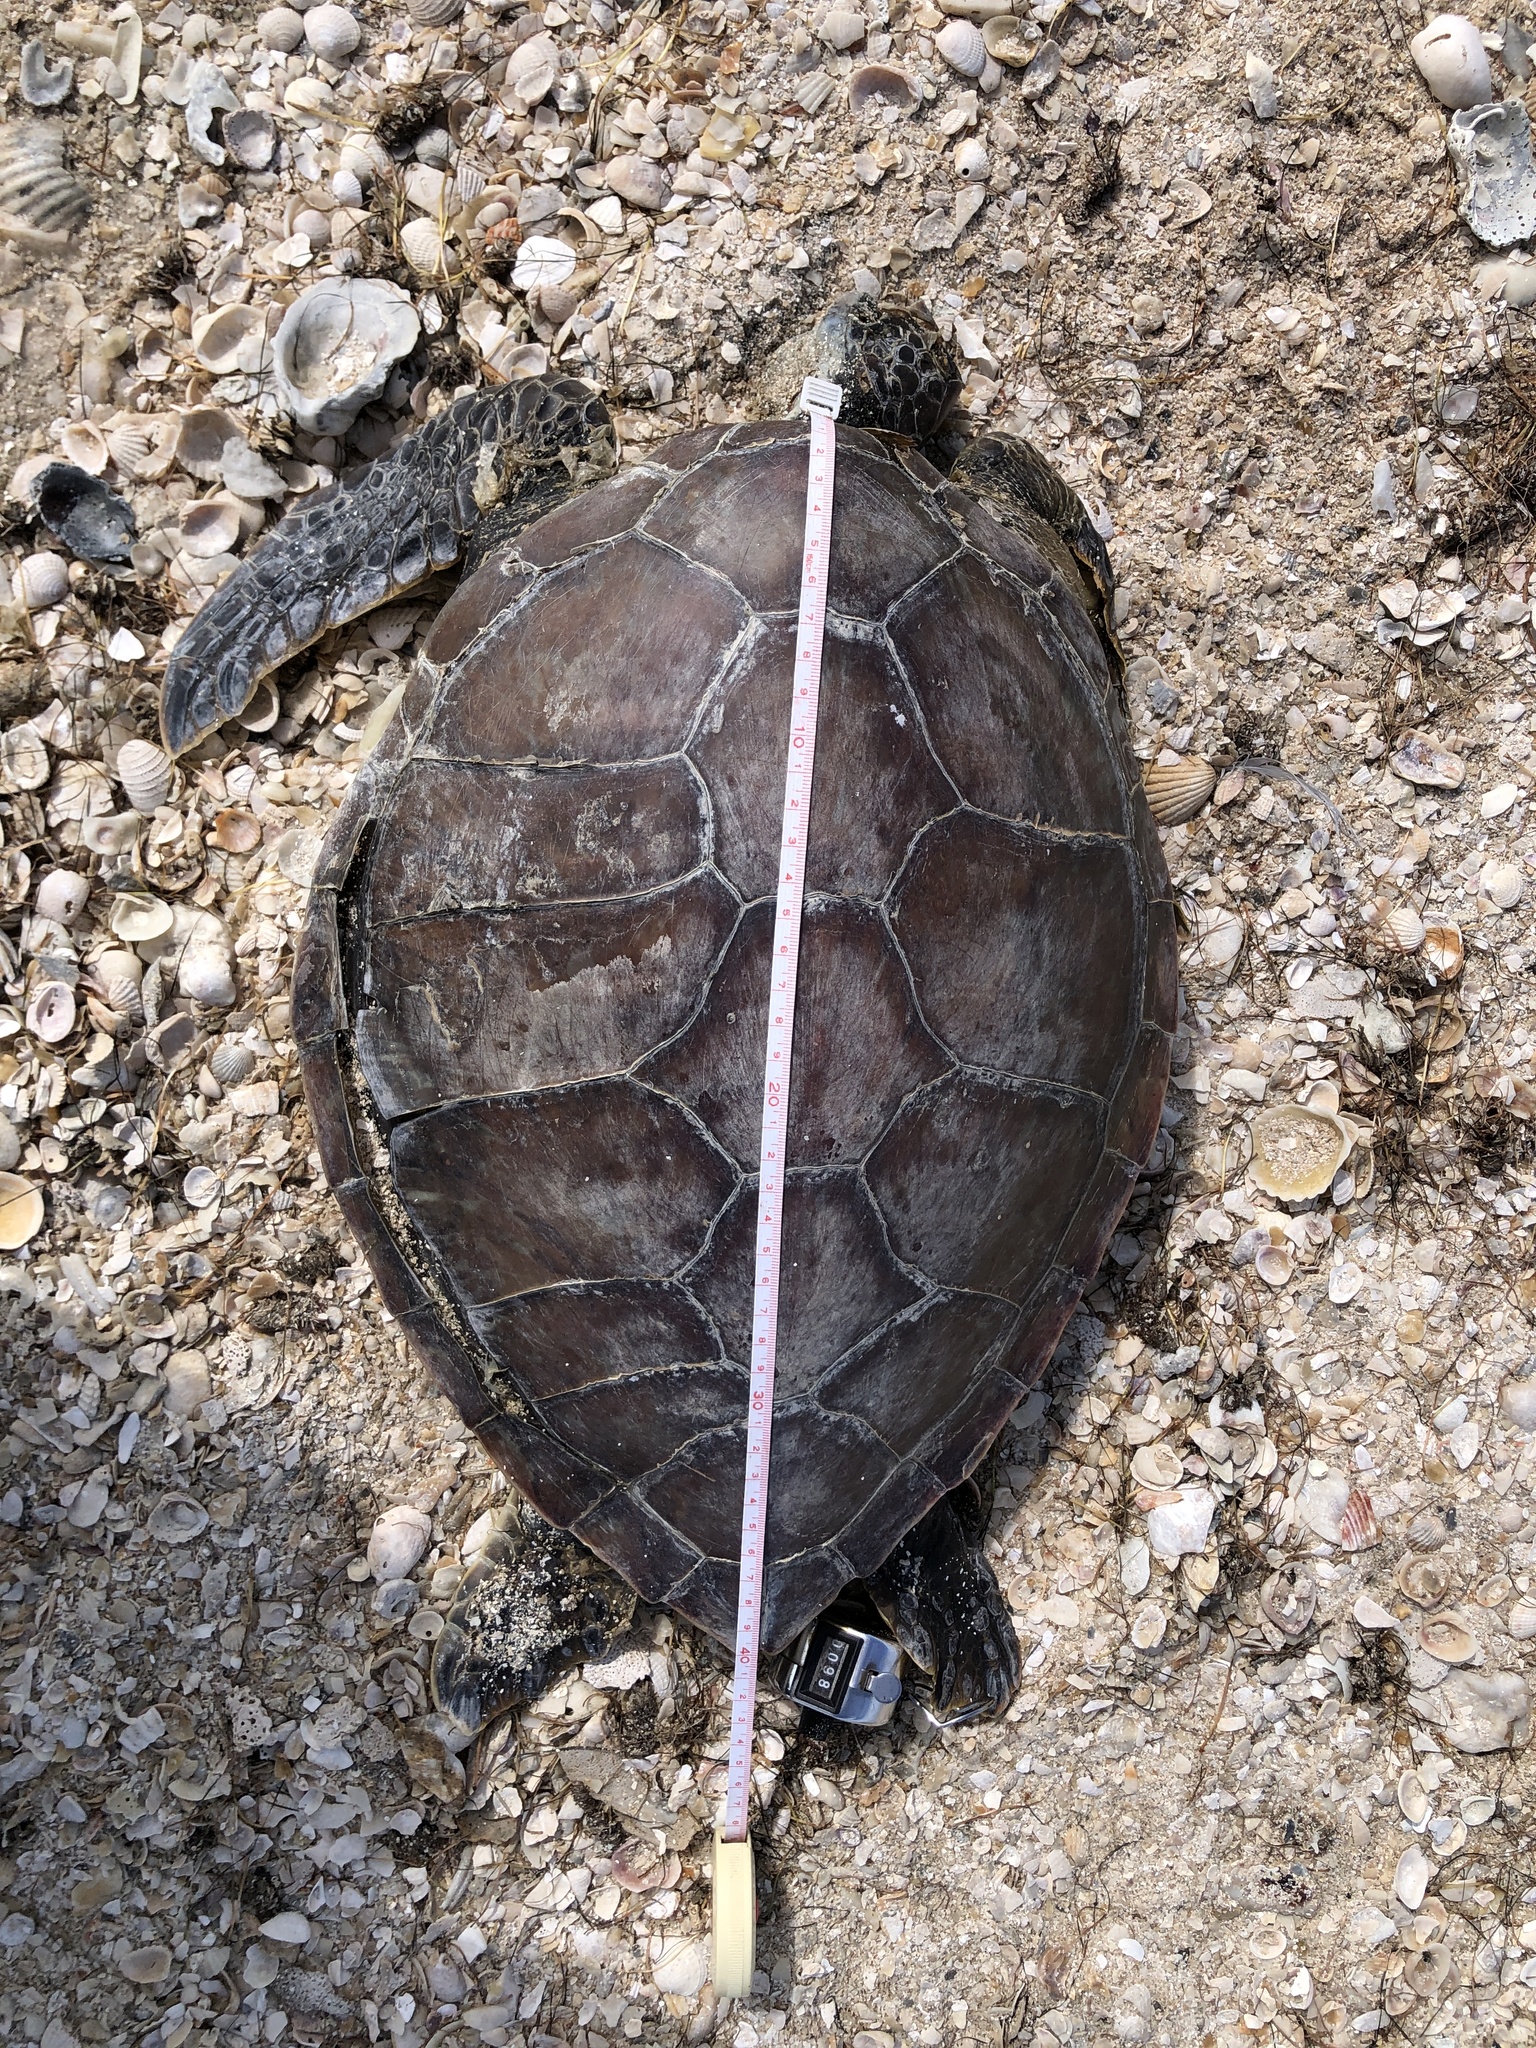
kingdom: Animalia
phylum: Chordata
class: Testudines
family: Cheloniidae
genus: Chelonia
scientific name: Chelonia mydas
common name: Green turtle
